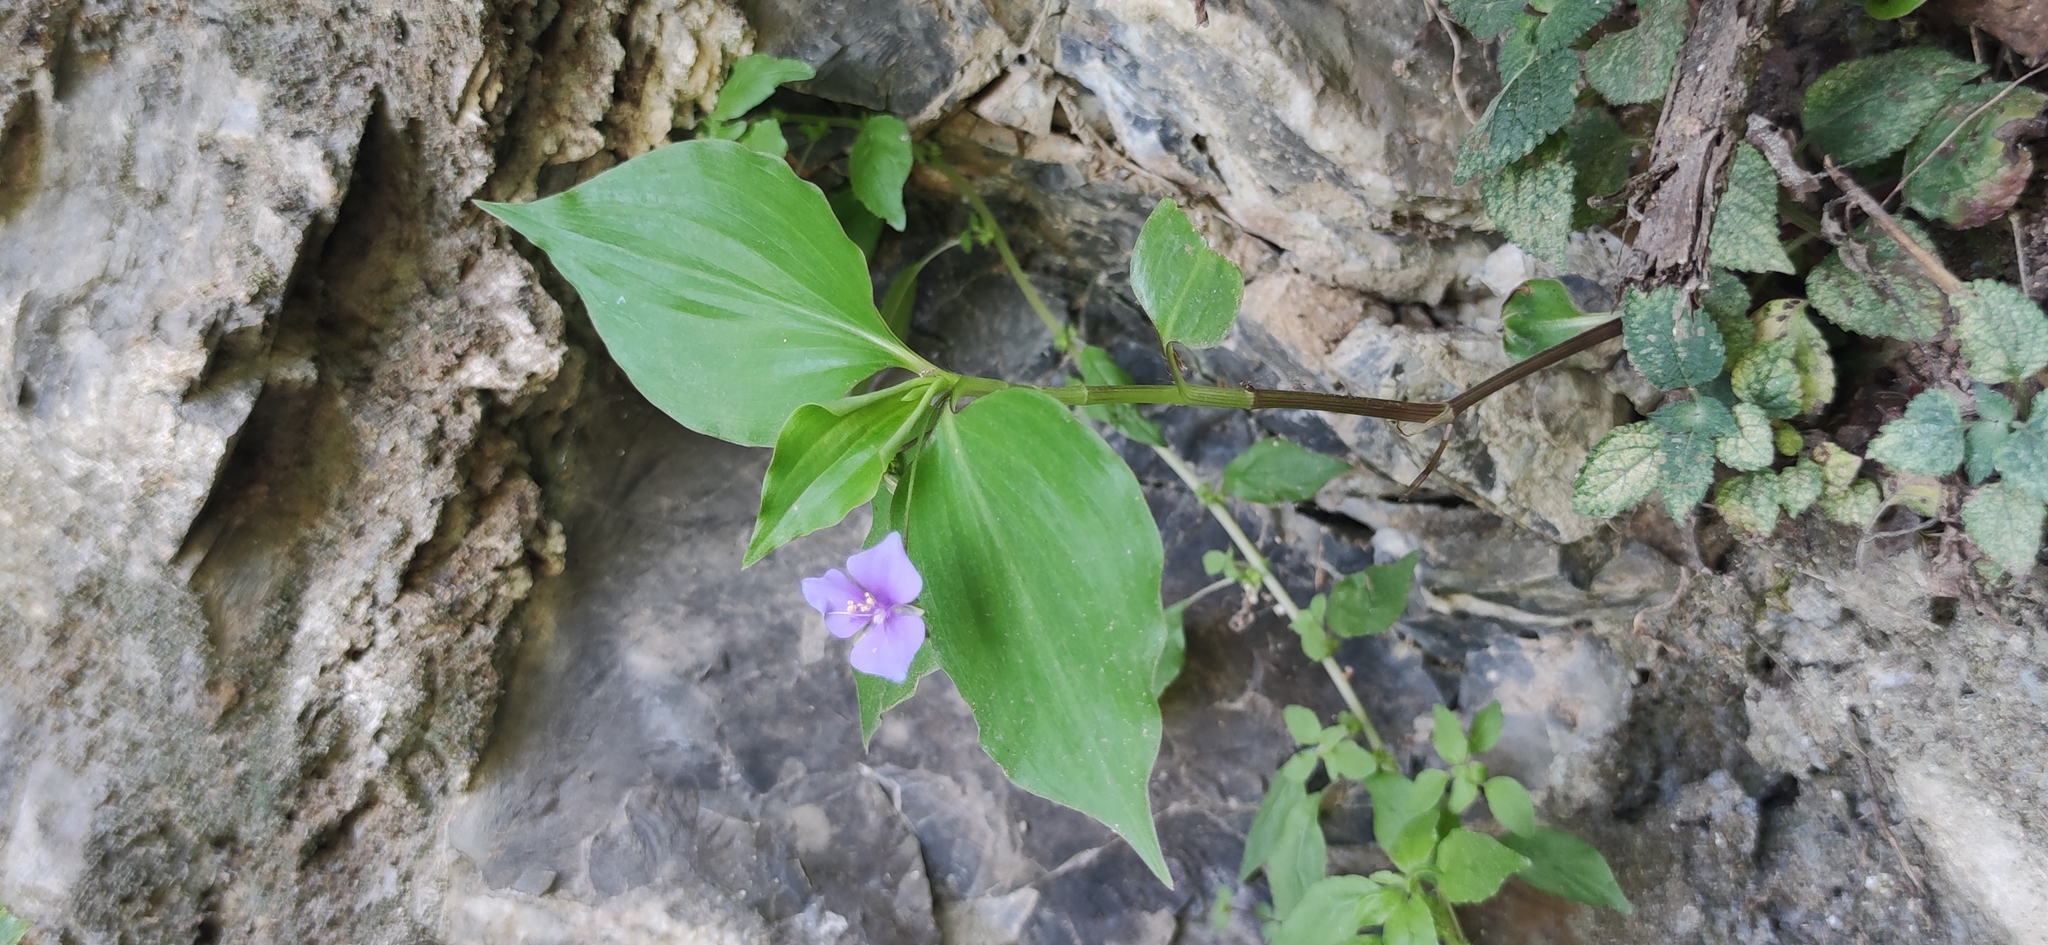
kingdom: Plantae
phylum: Tracheophyta
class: Liliopsida
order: Commelinales
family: Commelinaceae
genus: Tinantia
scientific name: Tinantia pringlei
